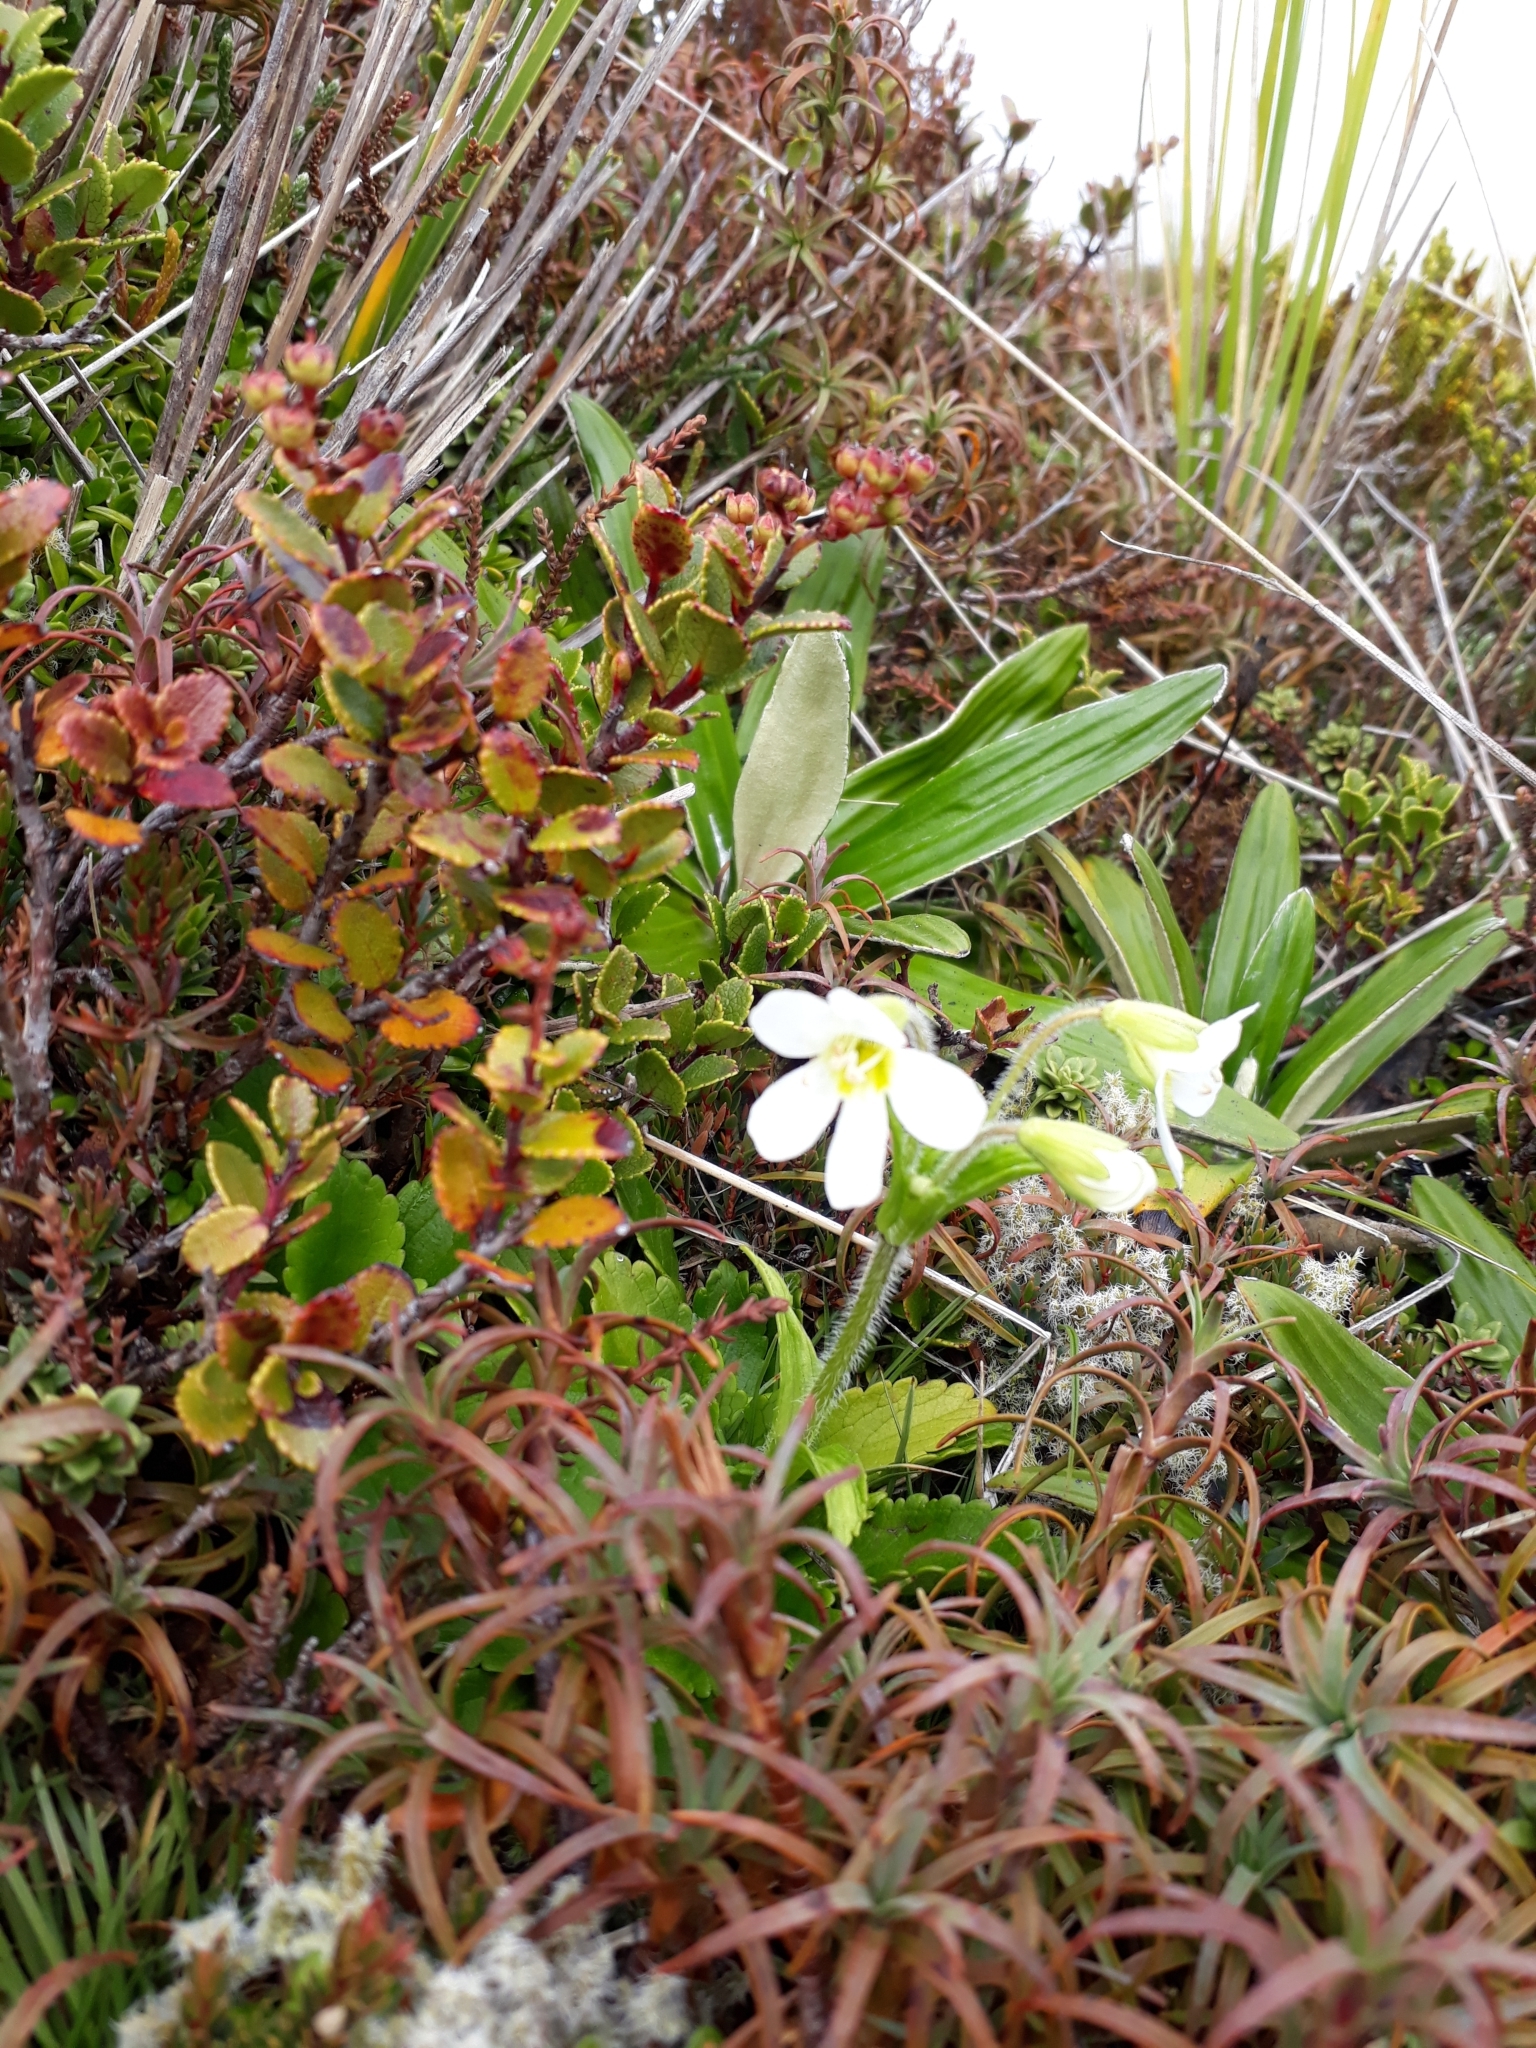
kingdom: Plantae
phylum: Tracheophyta
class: Magnoliopsida
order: Lamiales
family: Plantaginaceae
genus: Ourisia
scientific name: Ourisia macrophylla
